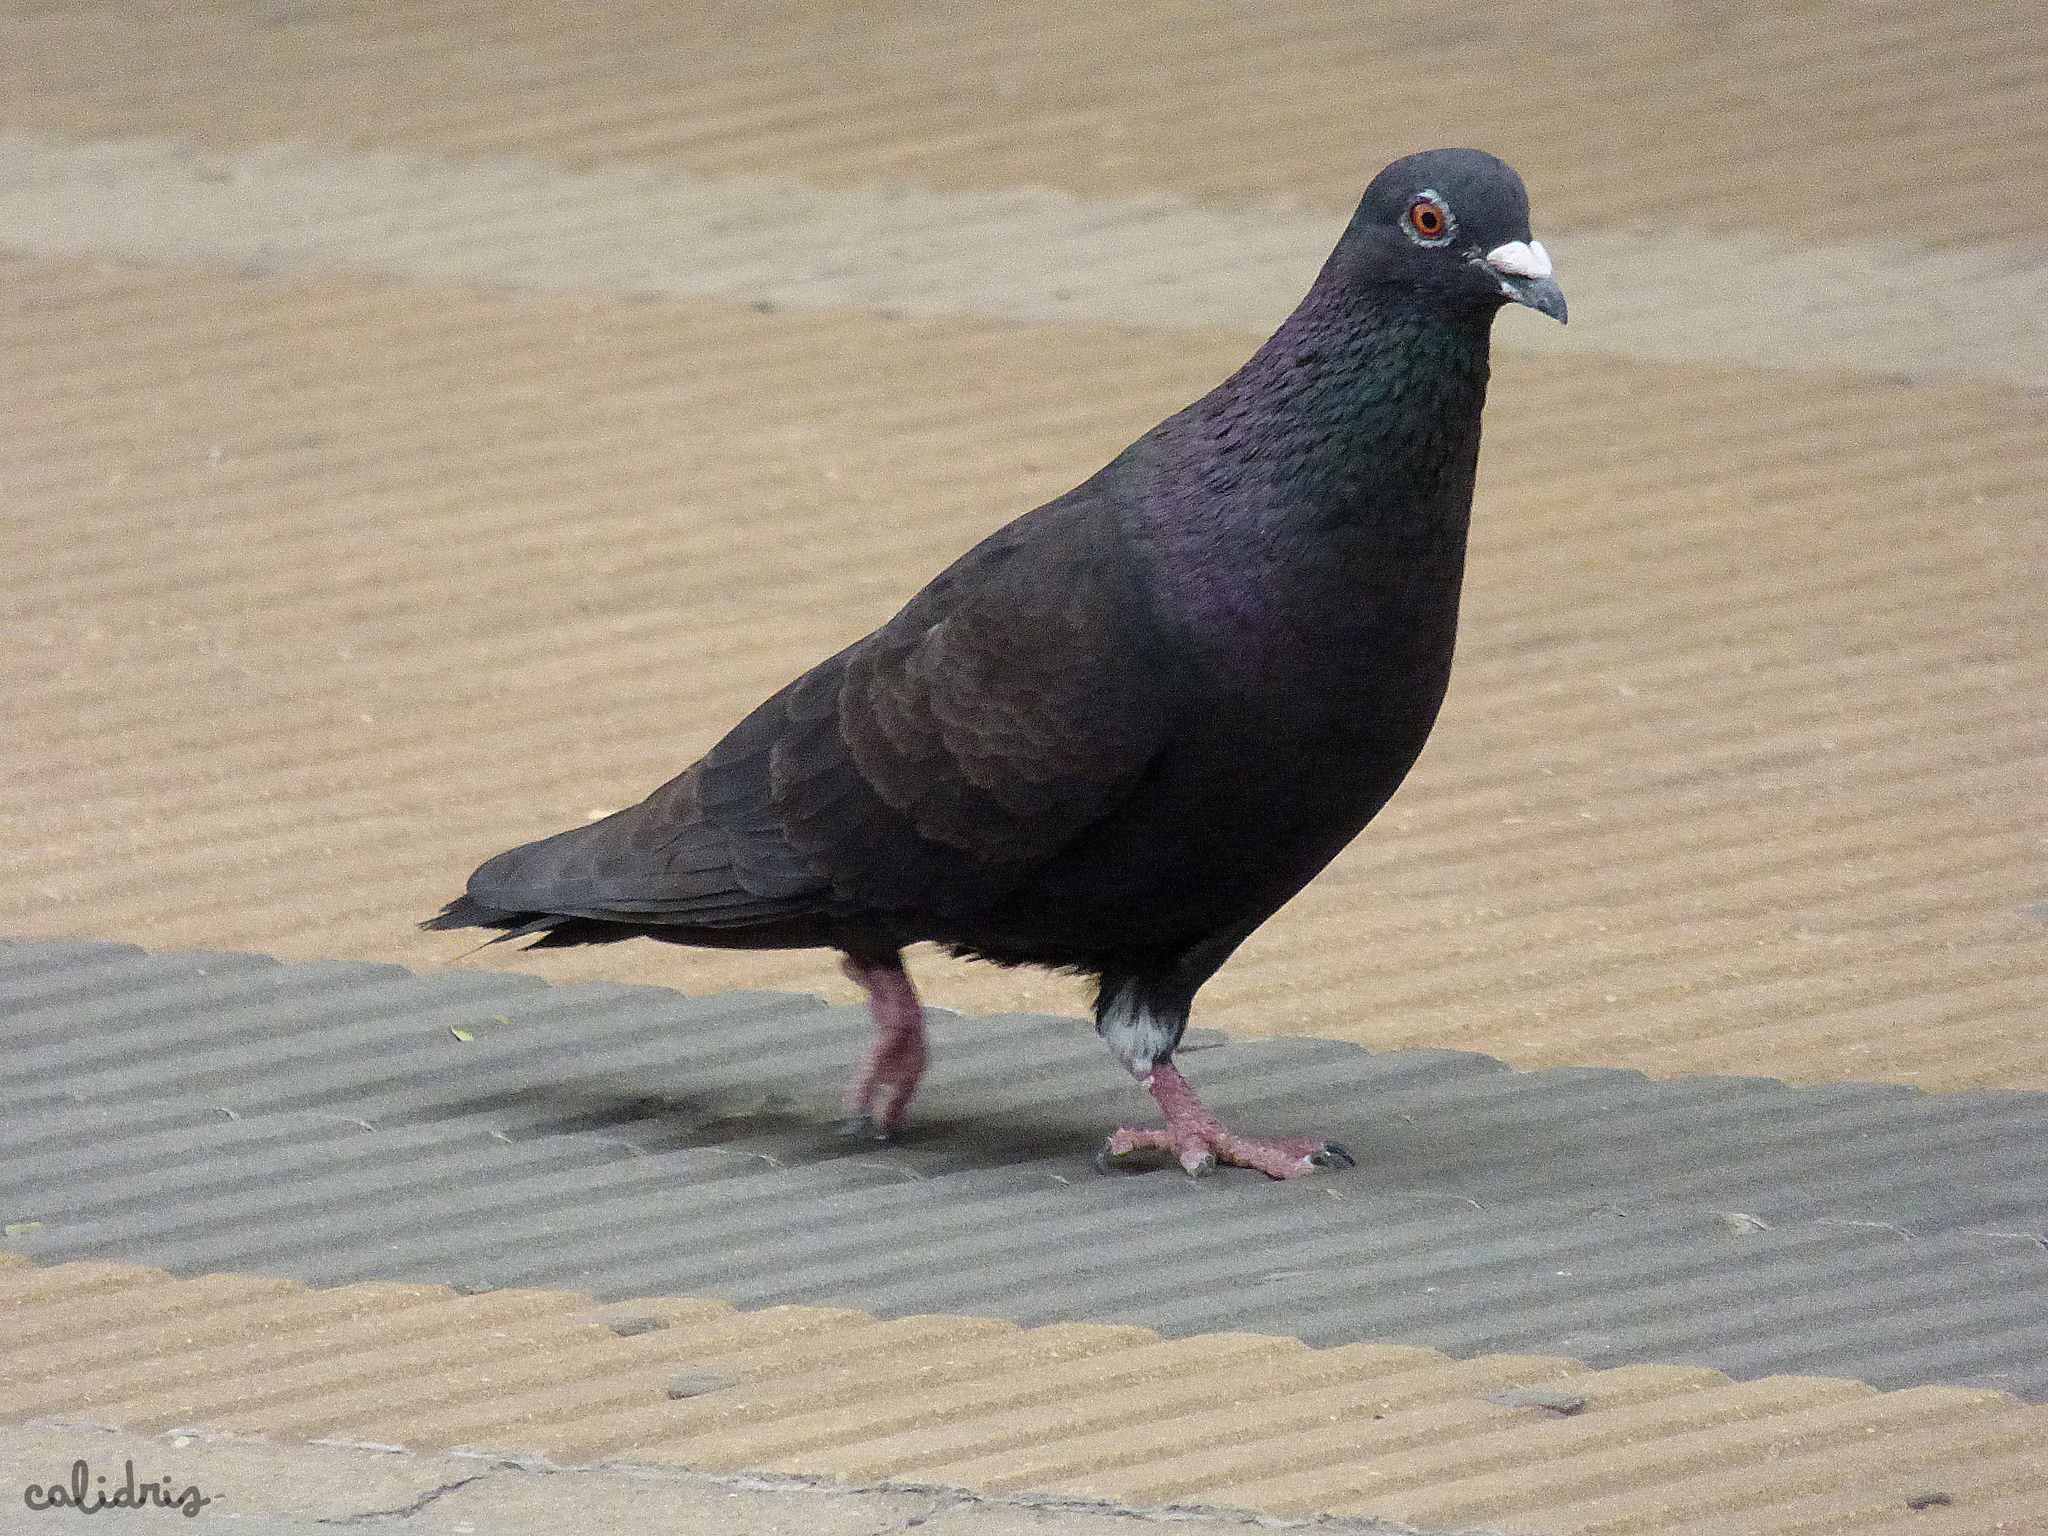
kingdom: Animalia
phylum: Chordata
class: Aves
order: Columbiformes
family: Columbidae
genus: Columba
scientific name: Columba livia
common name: Rock pigeon
